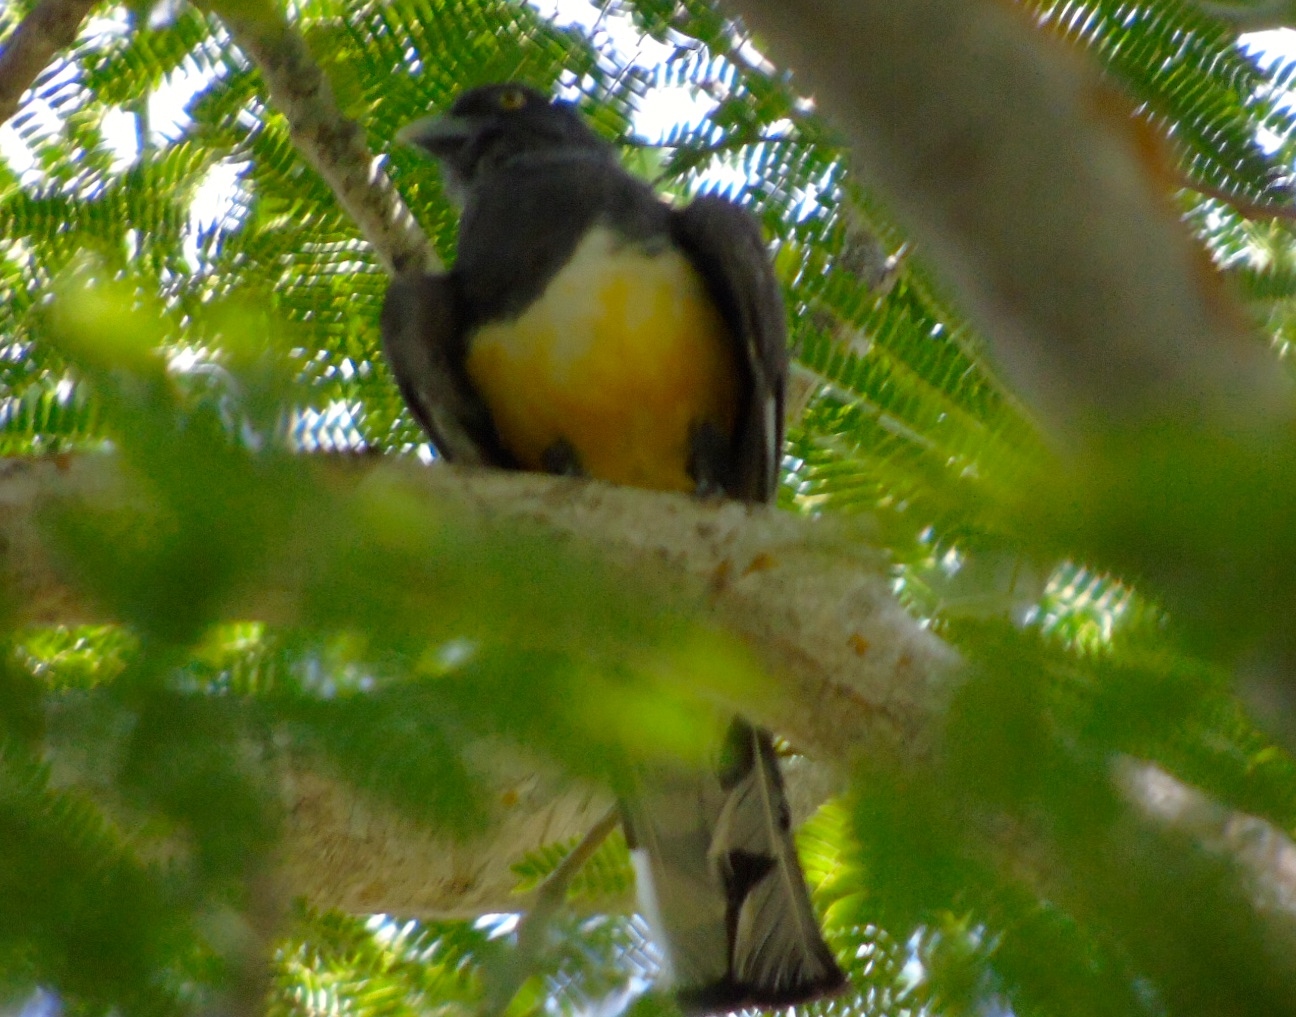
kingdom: Animalia
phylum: Chordata
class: Aves
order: Trogoniformes
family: Trogonidae
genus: Trogon
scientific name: Trogon citreolus
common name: Citreoline trogon
